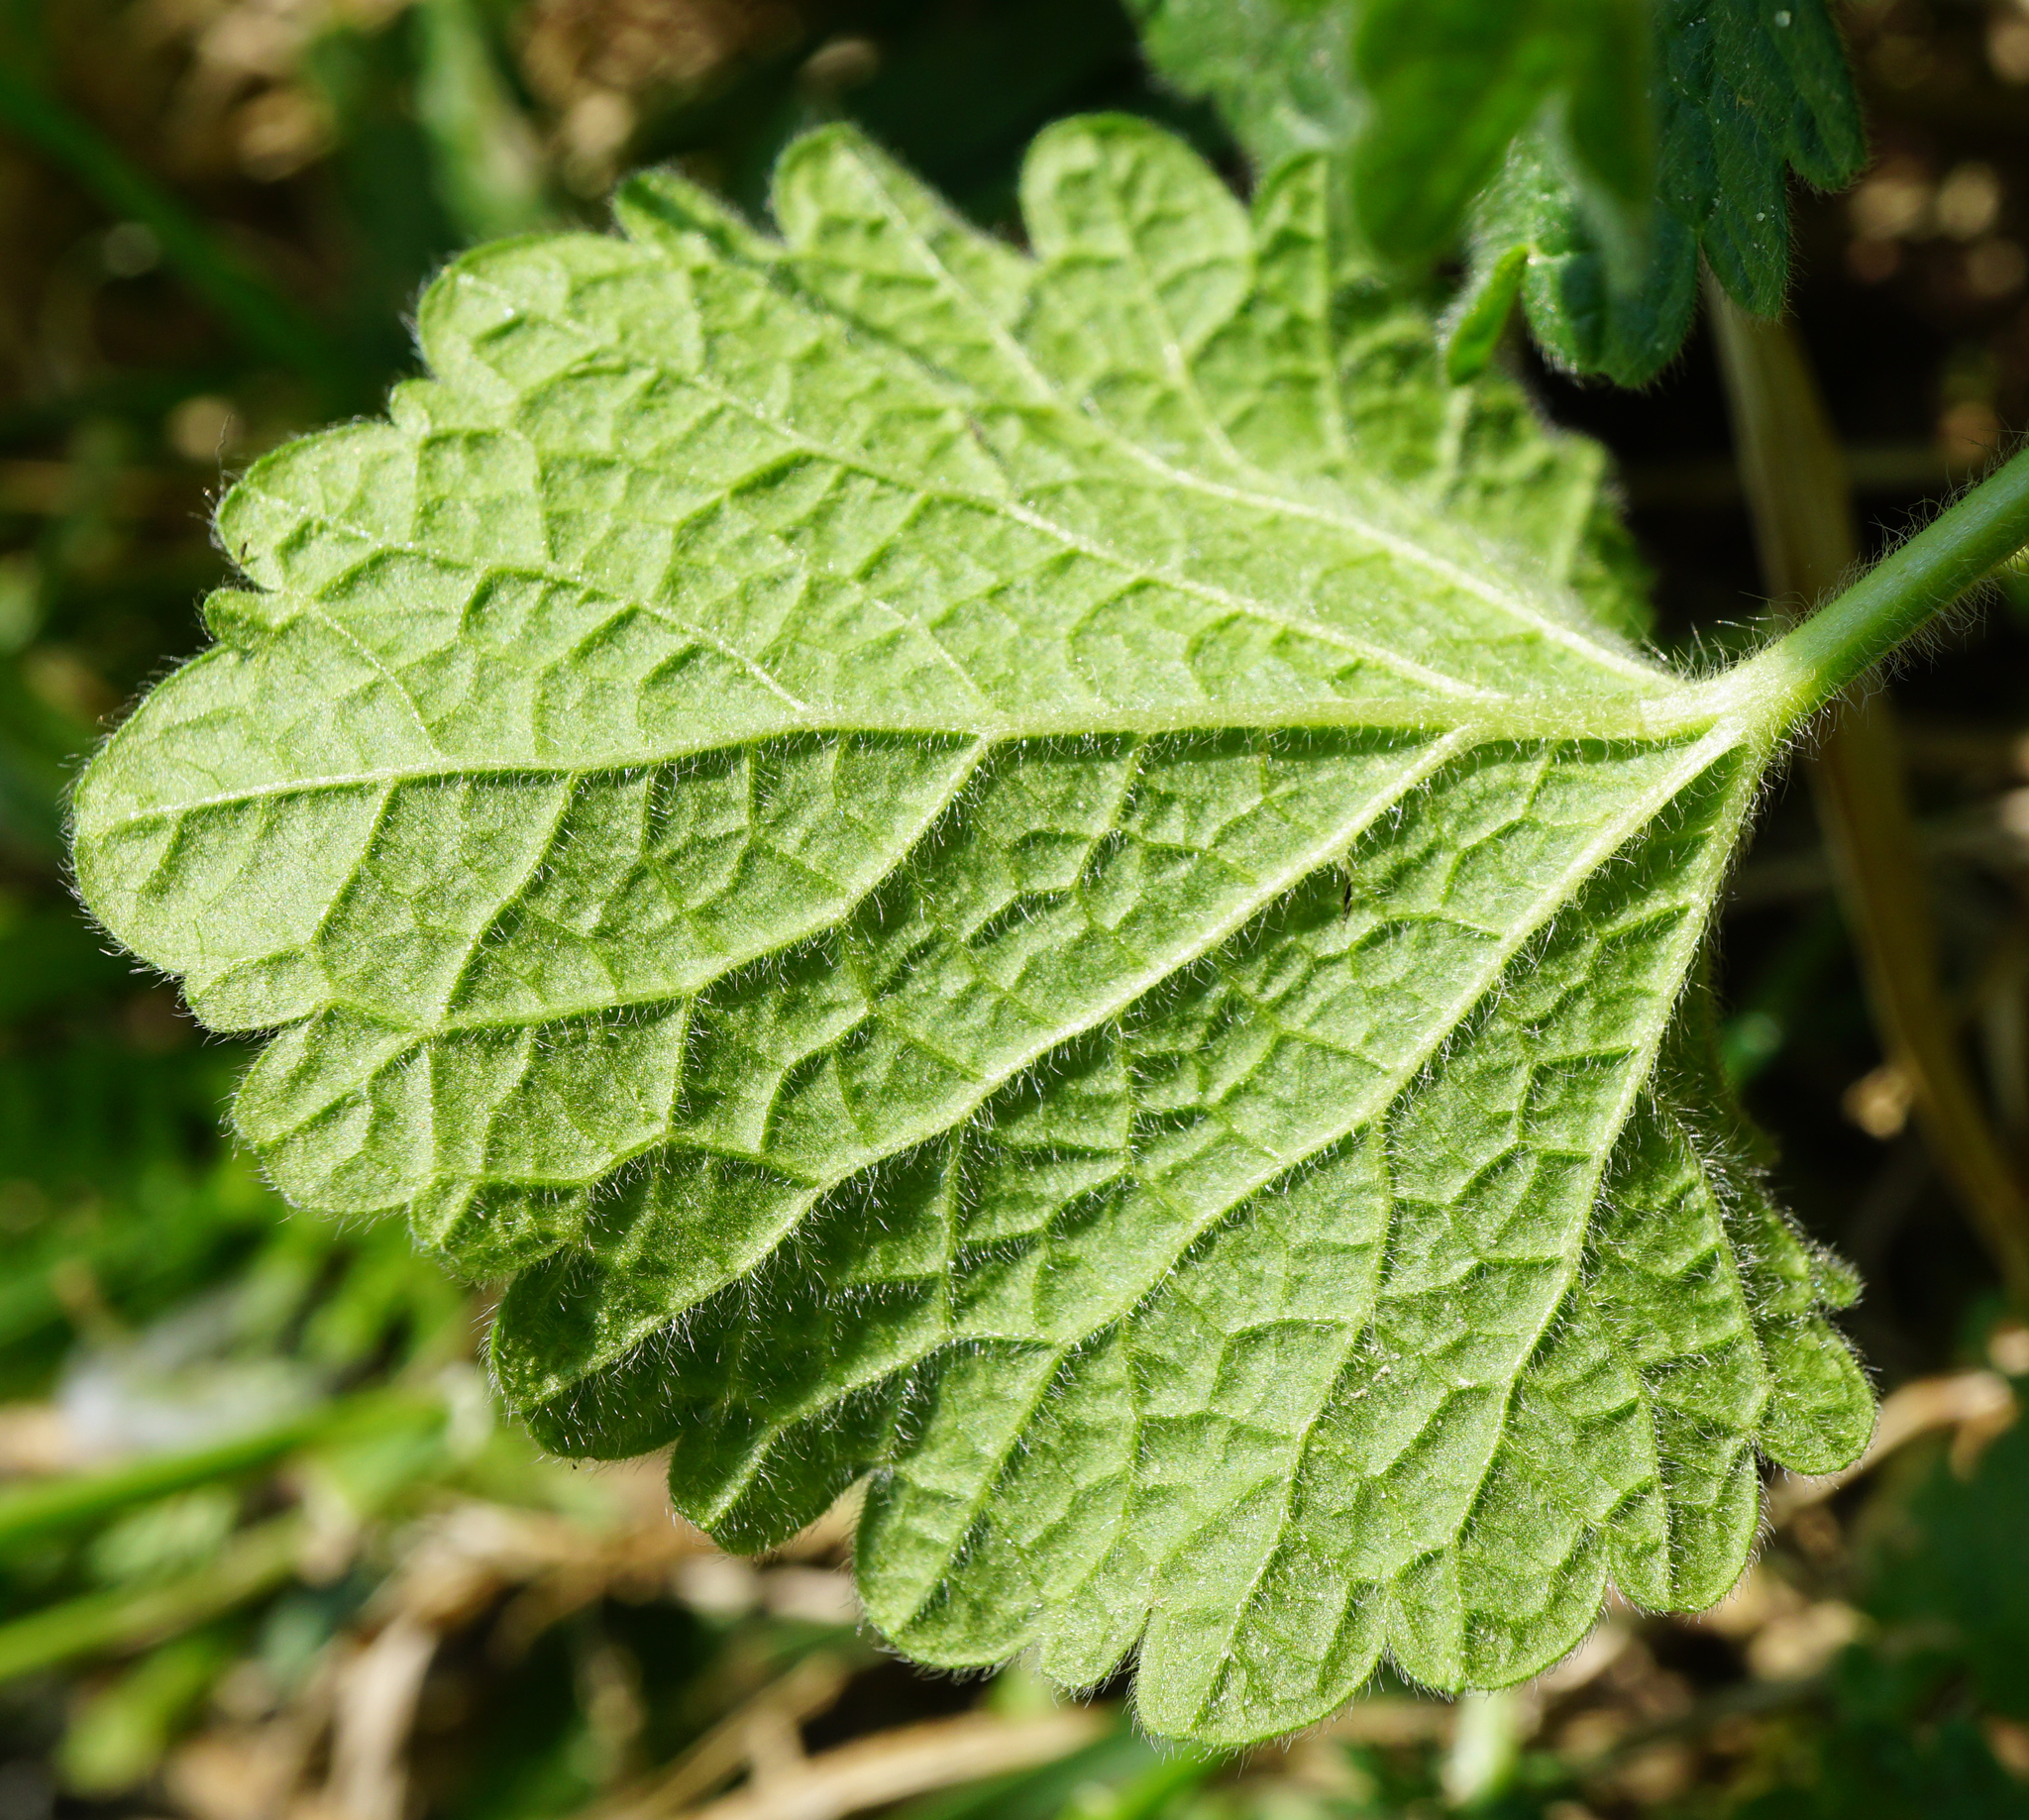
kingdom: Plantae
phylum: Tracheophyta
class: Magnoliopsida
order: Lamiales
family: Lamiaceae
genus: Ballota
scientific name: Ballota nigra
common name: Black horehound
